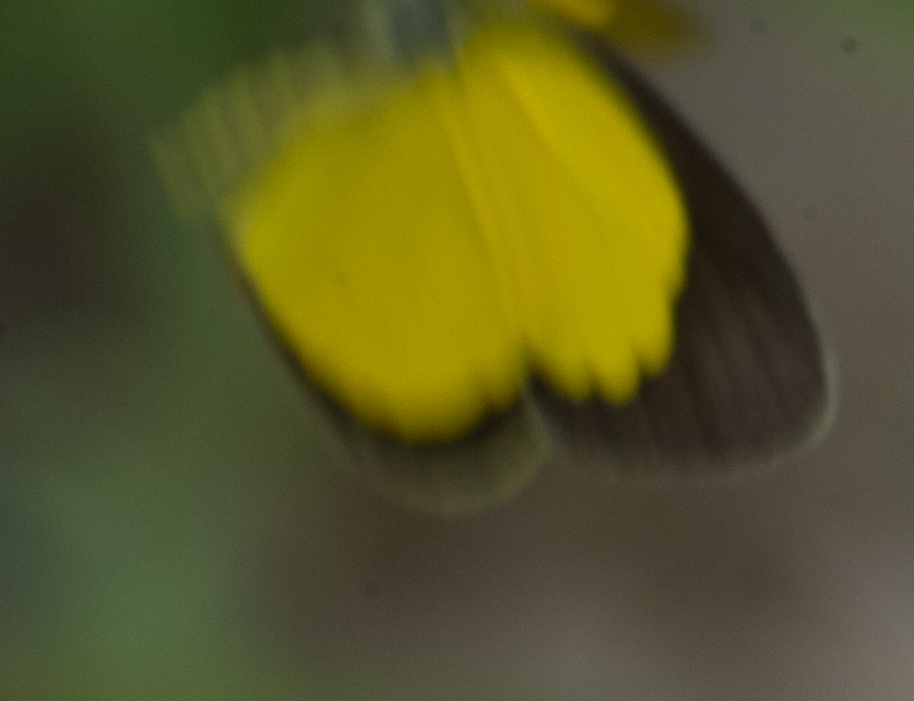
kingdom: Animalia
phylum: Arthropoda
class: Insecta
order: Lepidoptera
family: Pieridae
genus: Eurema
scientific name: Eurema brigitta
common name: Small grass yellow
